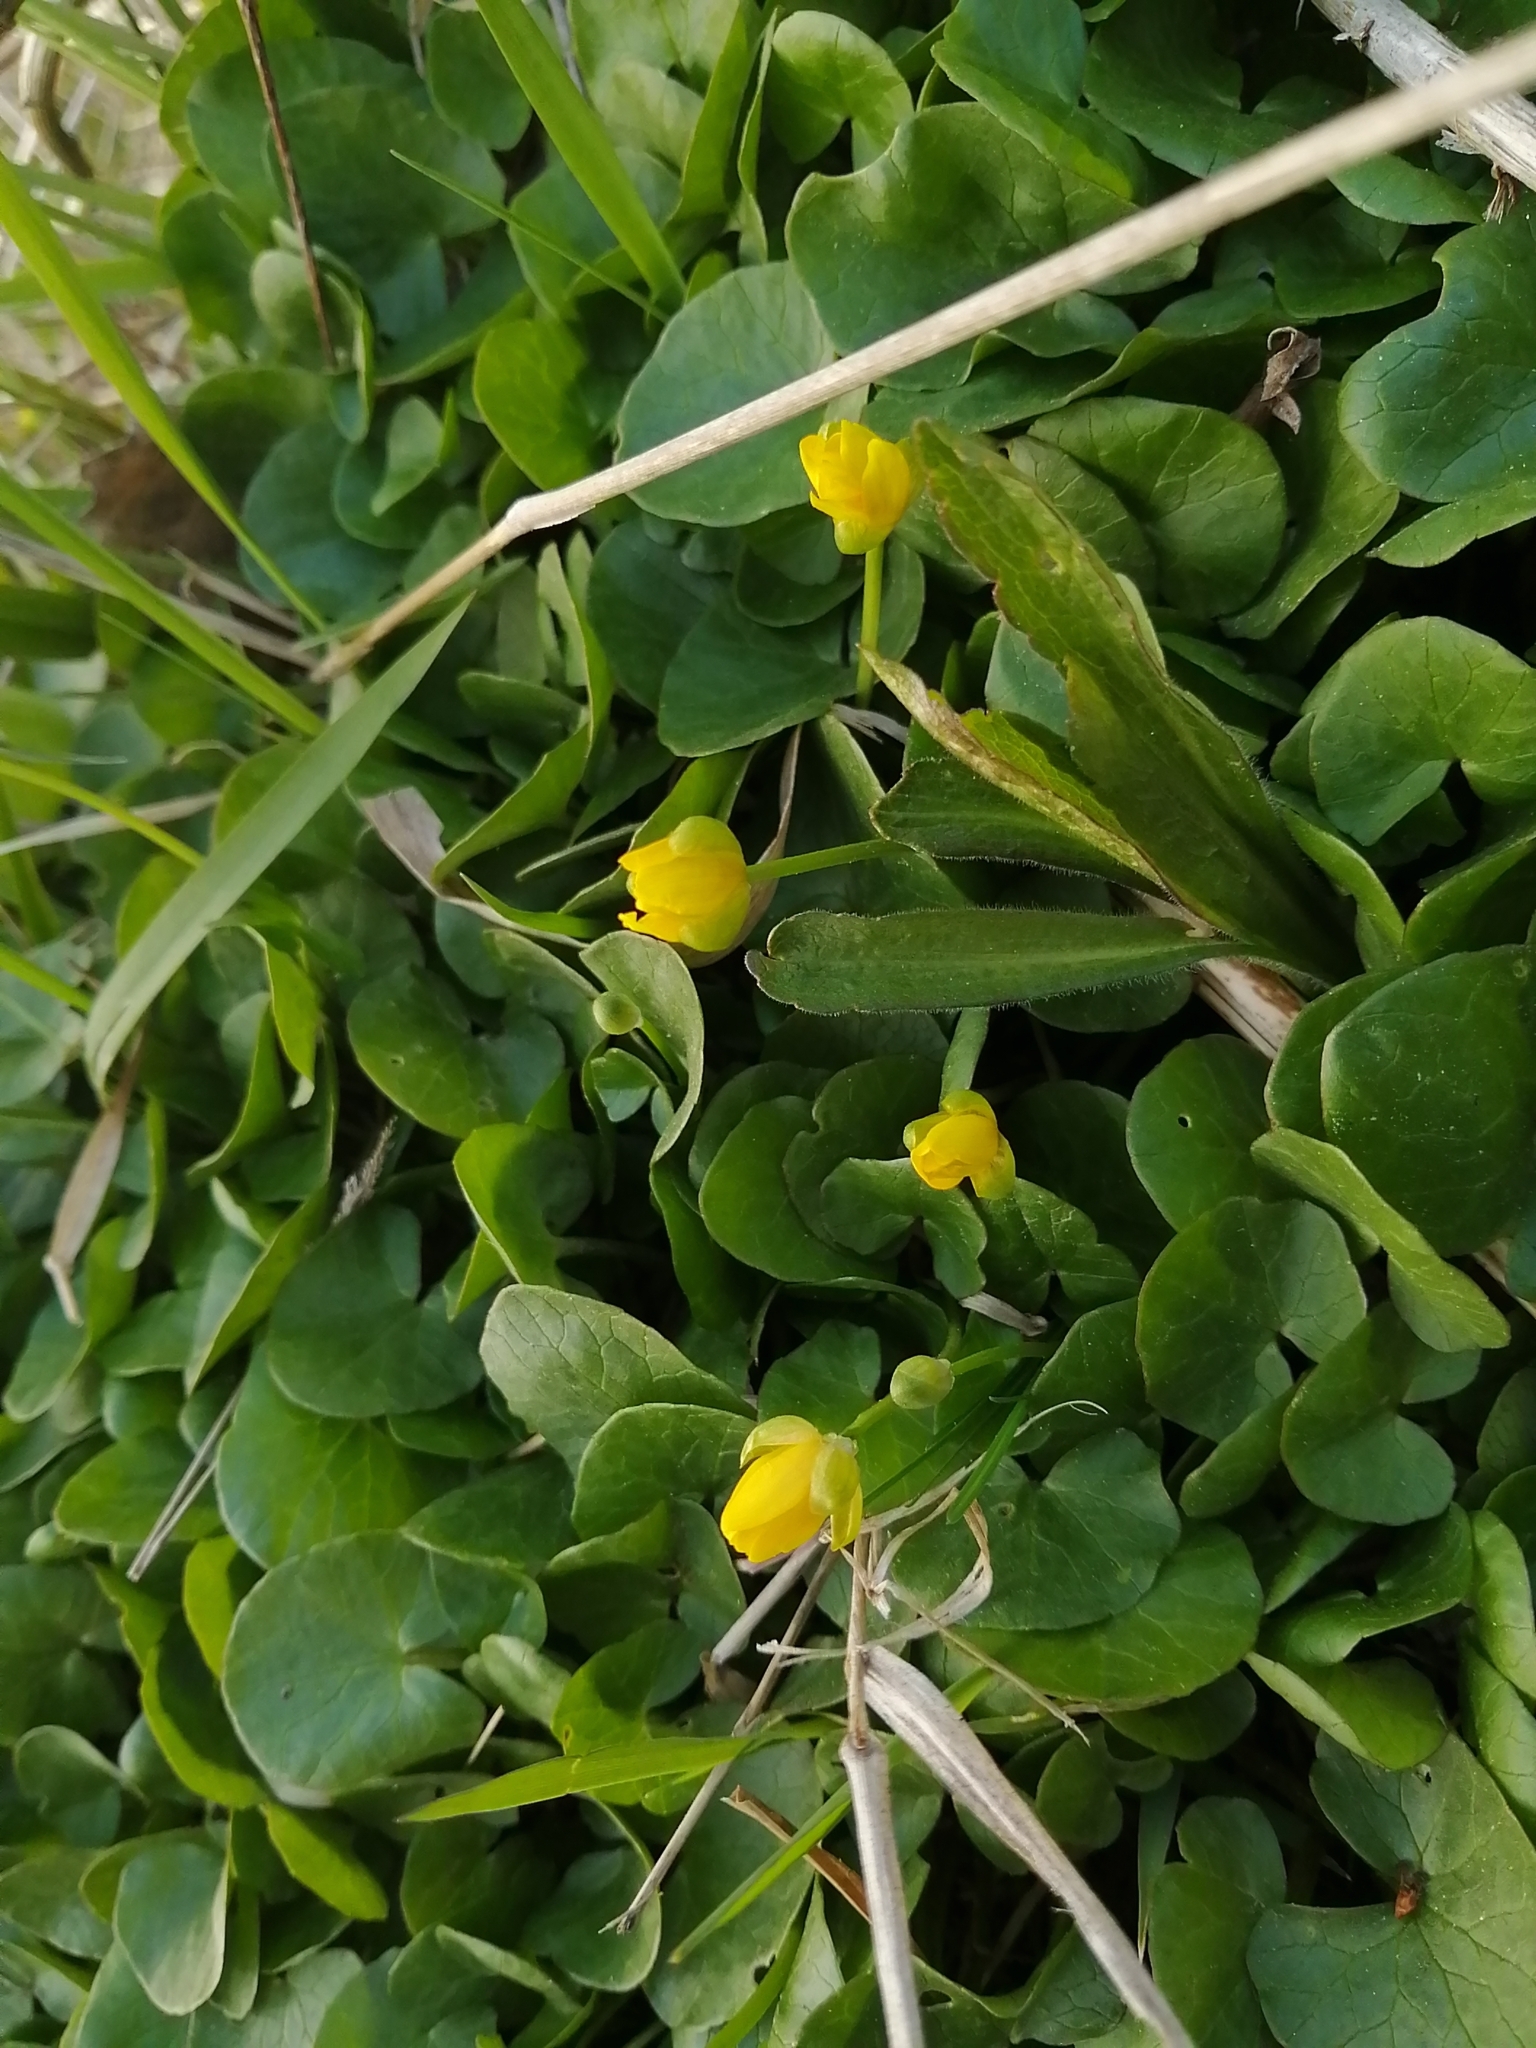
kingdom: Plantae
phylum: Tracheophyta
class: Magnoliopsida
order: Ranunculales
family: Ranunculaceae
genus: Ficaria
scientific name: Ficaria verna
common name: Lesser celandine
